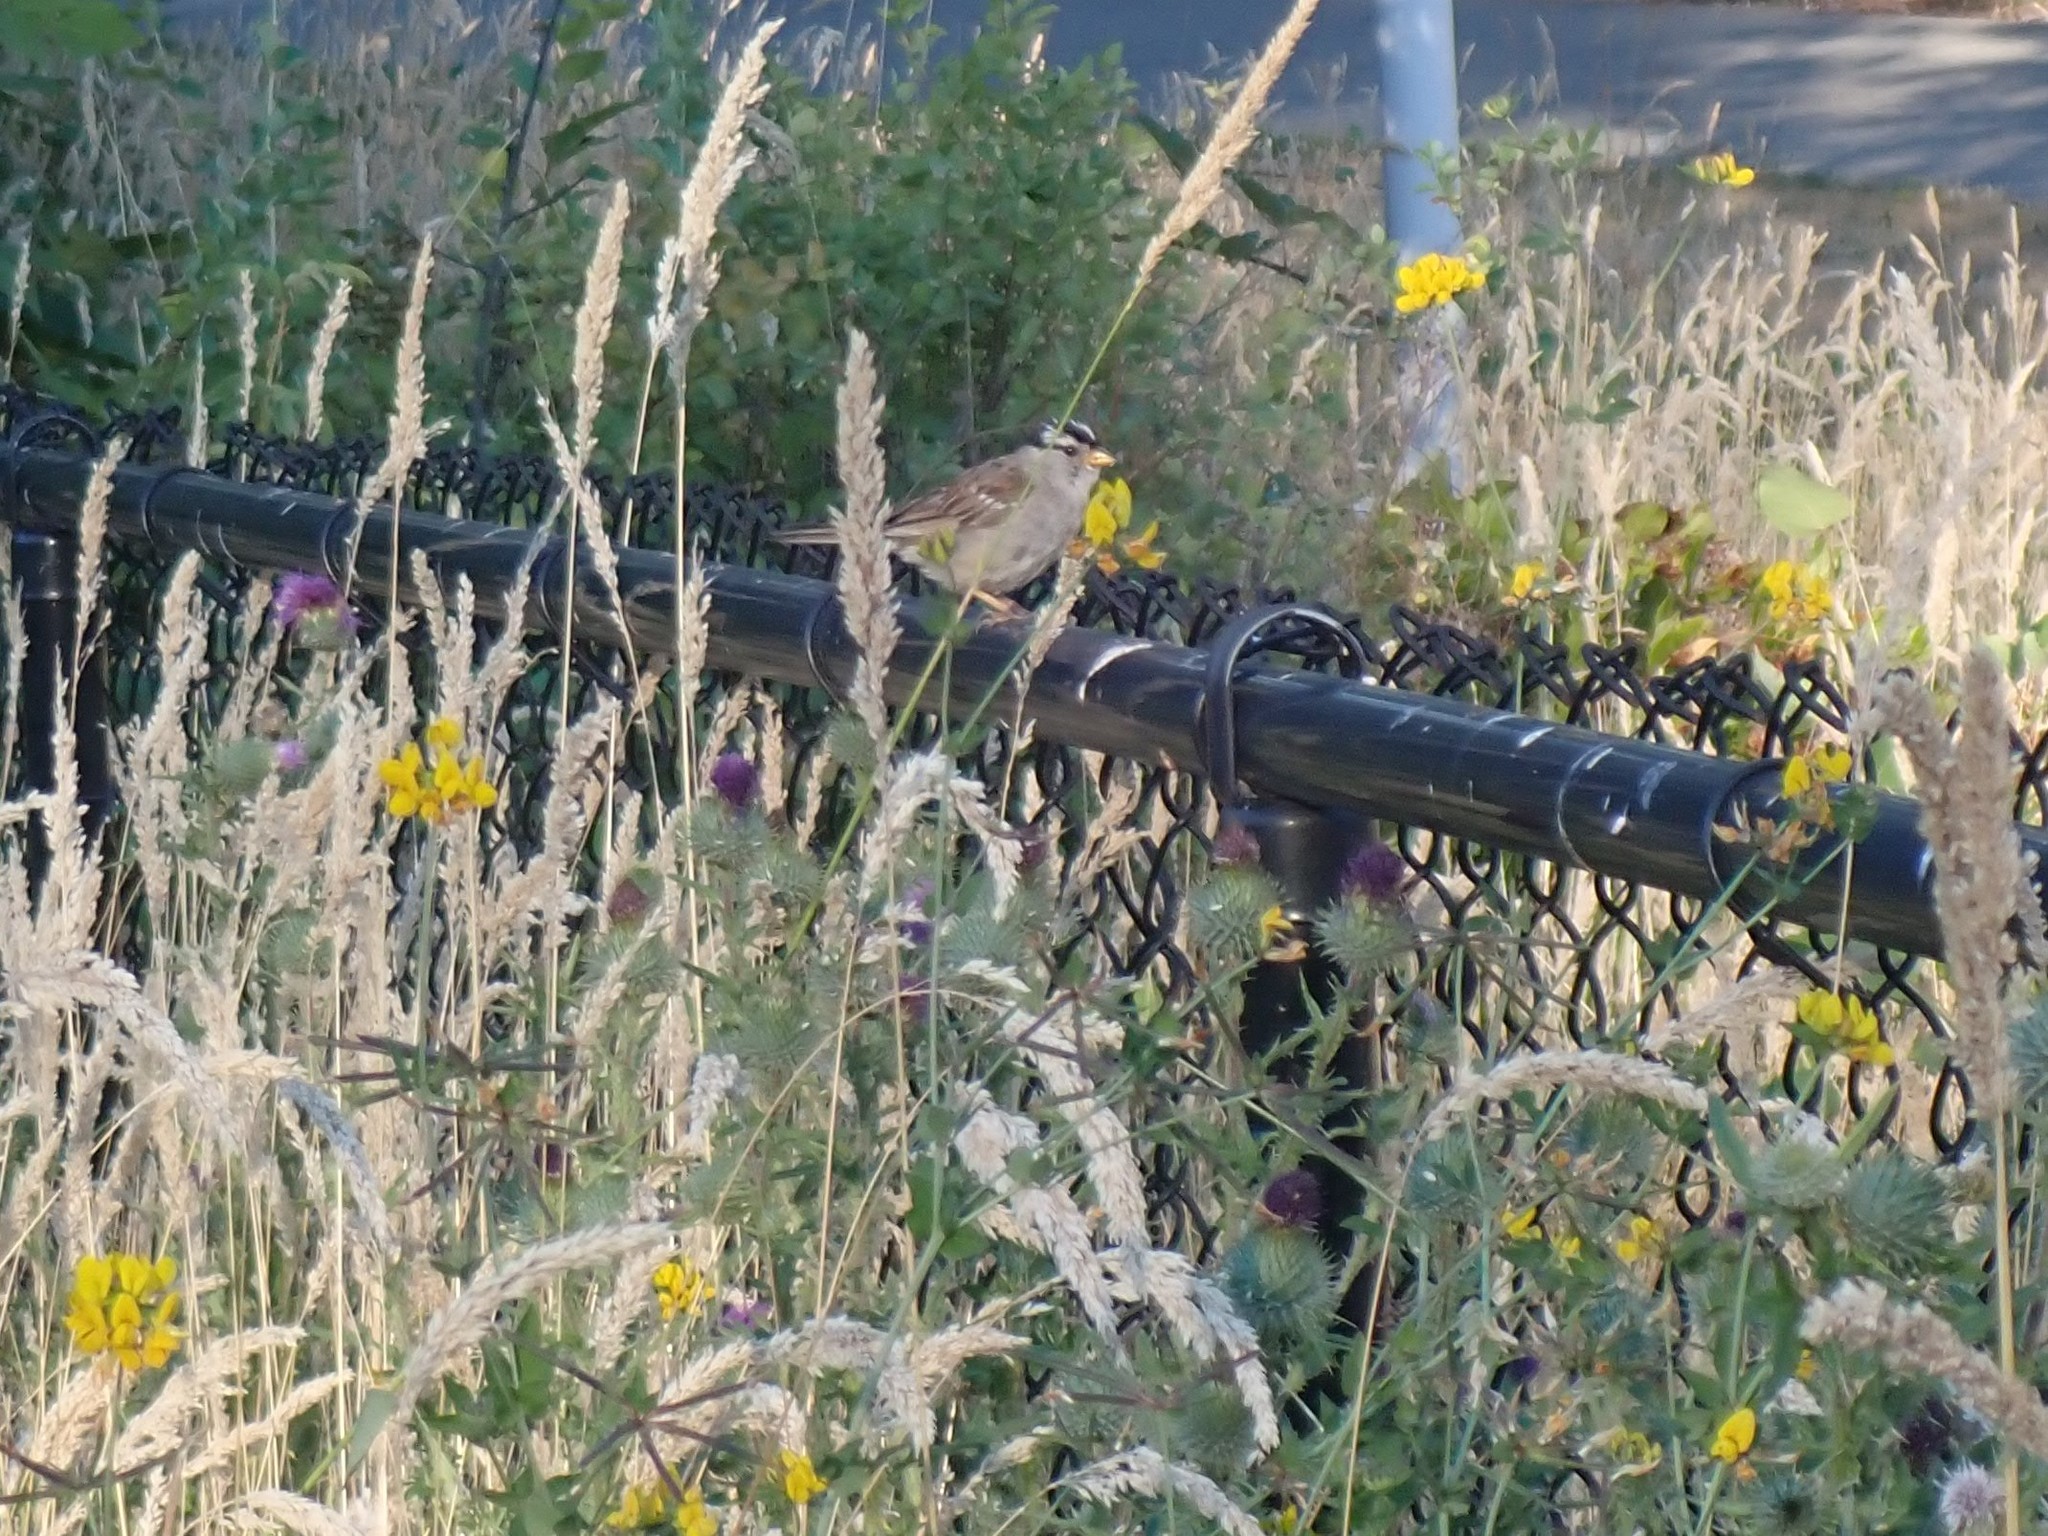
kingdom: Animalia
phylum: Chordata
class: Aves
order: Passeriformes
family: Passerellidae
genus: Zonotrichia
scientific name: Zonotrichia leucophrys
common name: White-crowned sparrow
